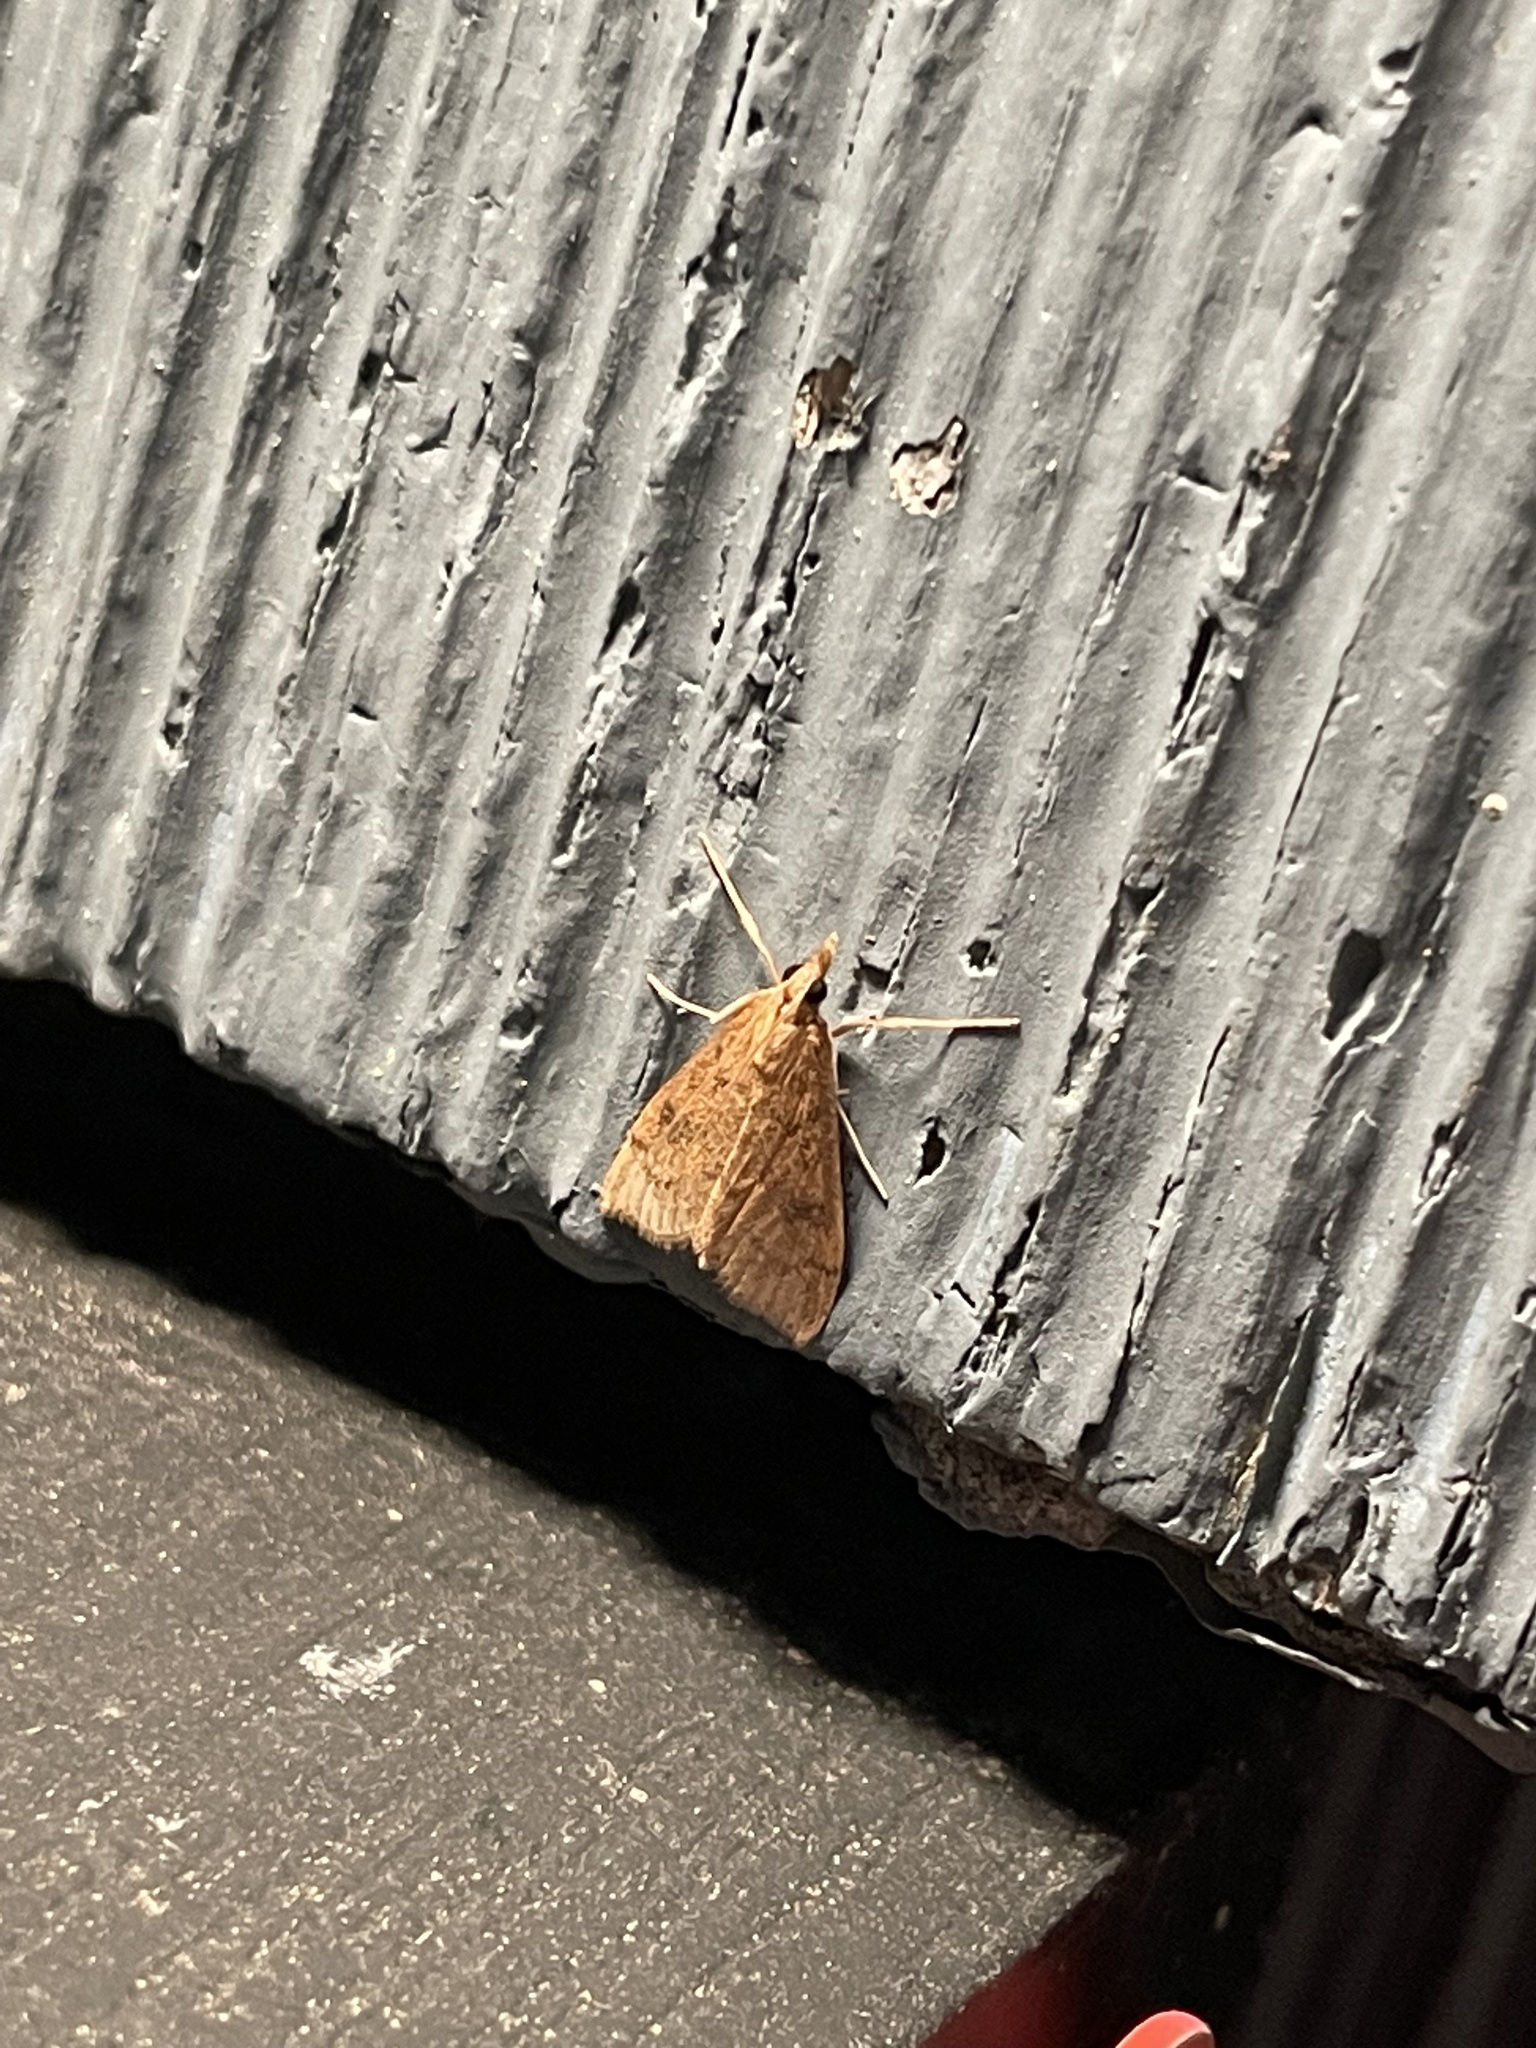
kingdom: Animalia
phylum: Arthropoda
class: Insecta
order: Lepidoptera
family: Crambidae
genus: Udea
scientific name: Udea rubigalis
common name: Celery leaftier moth
